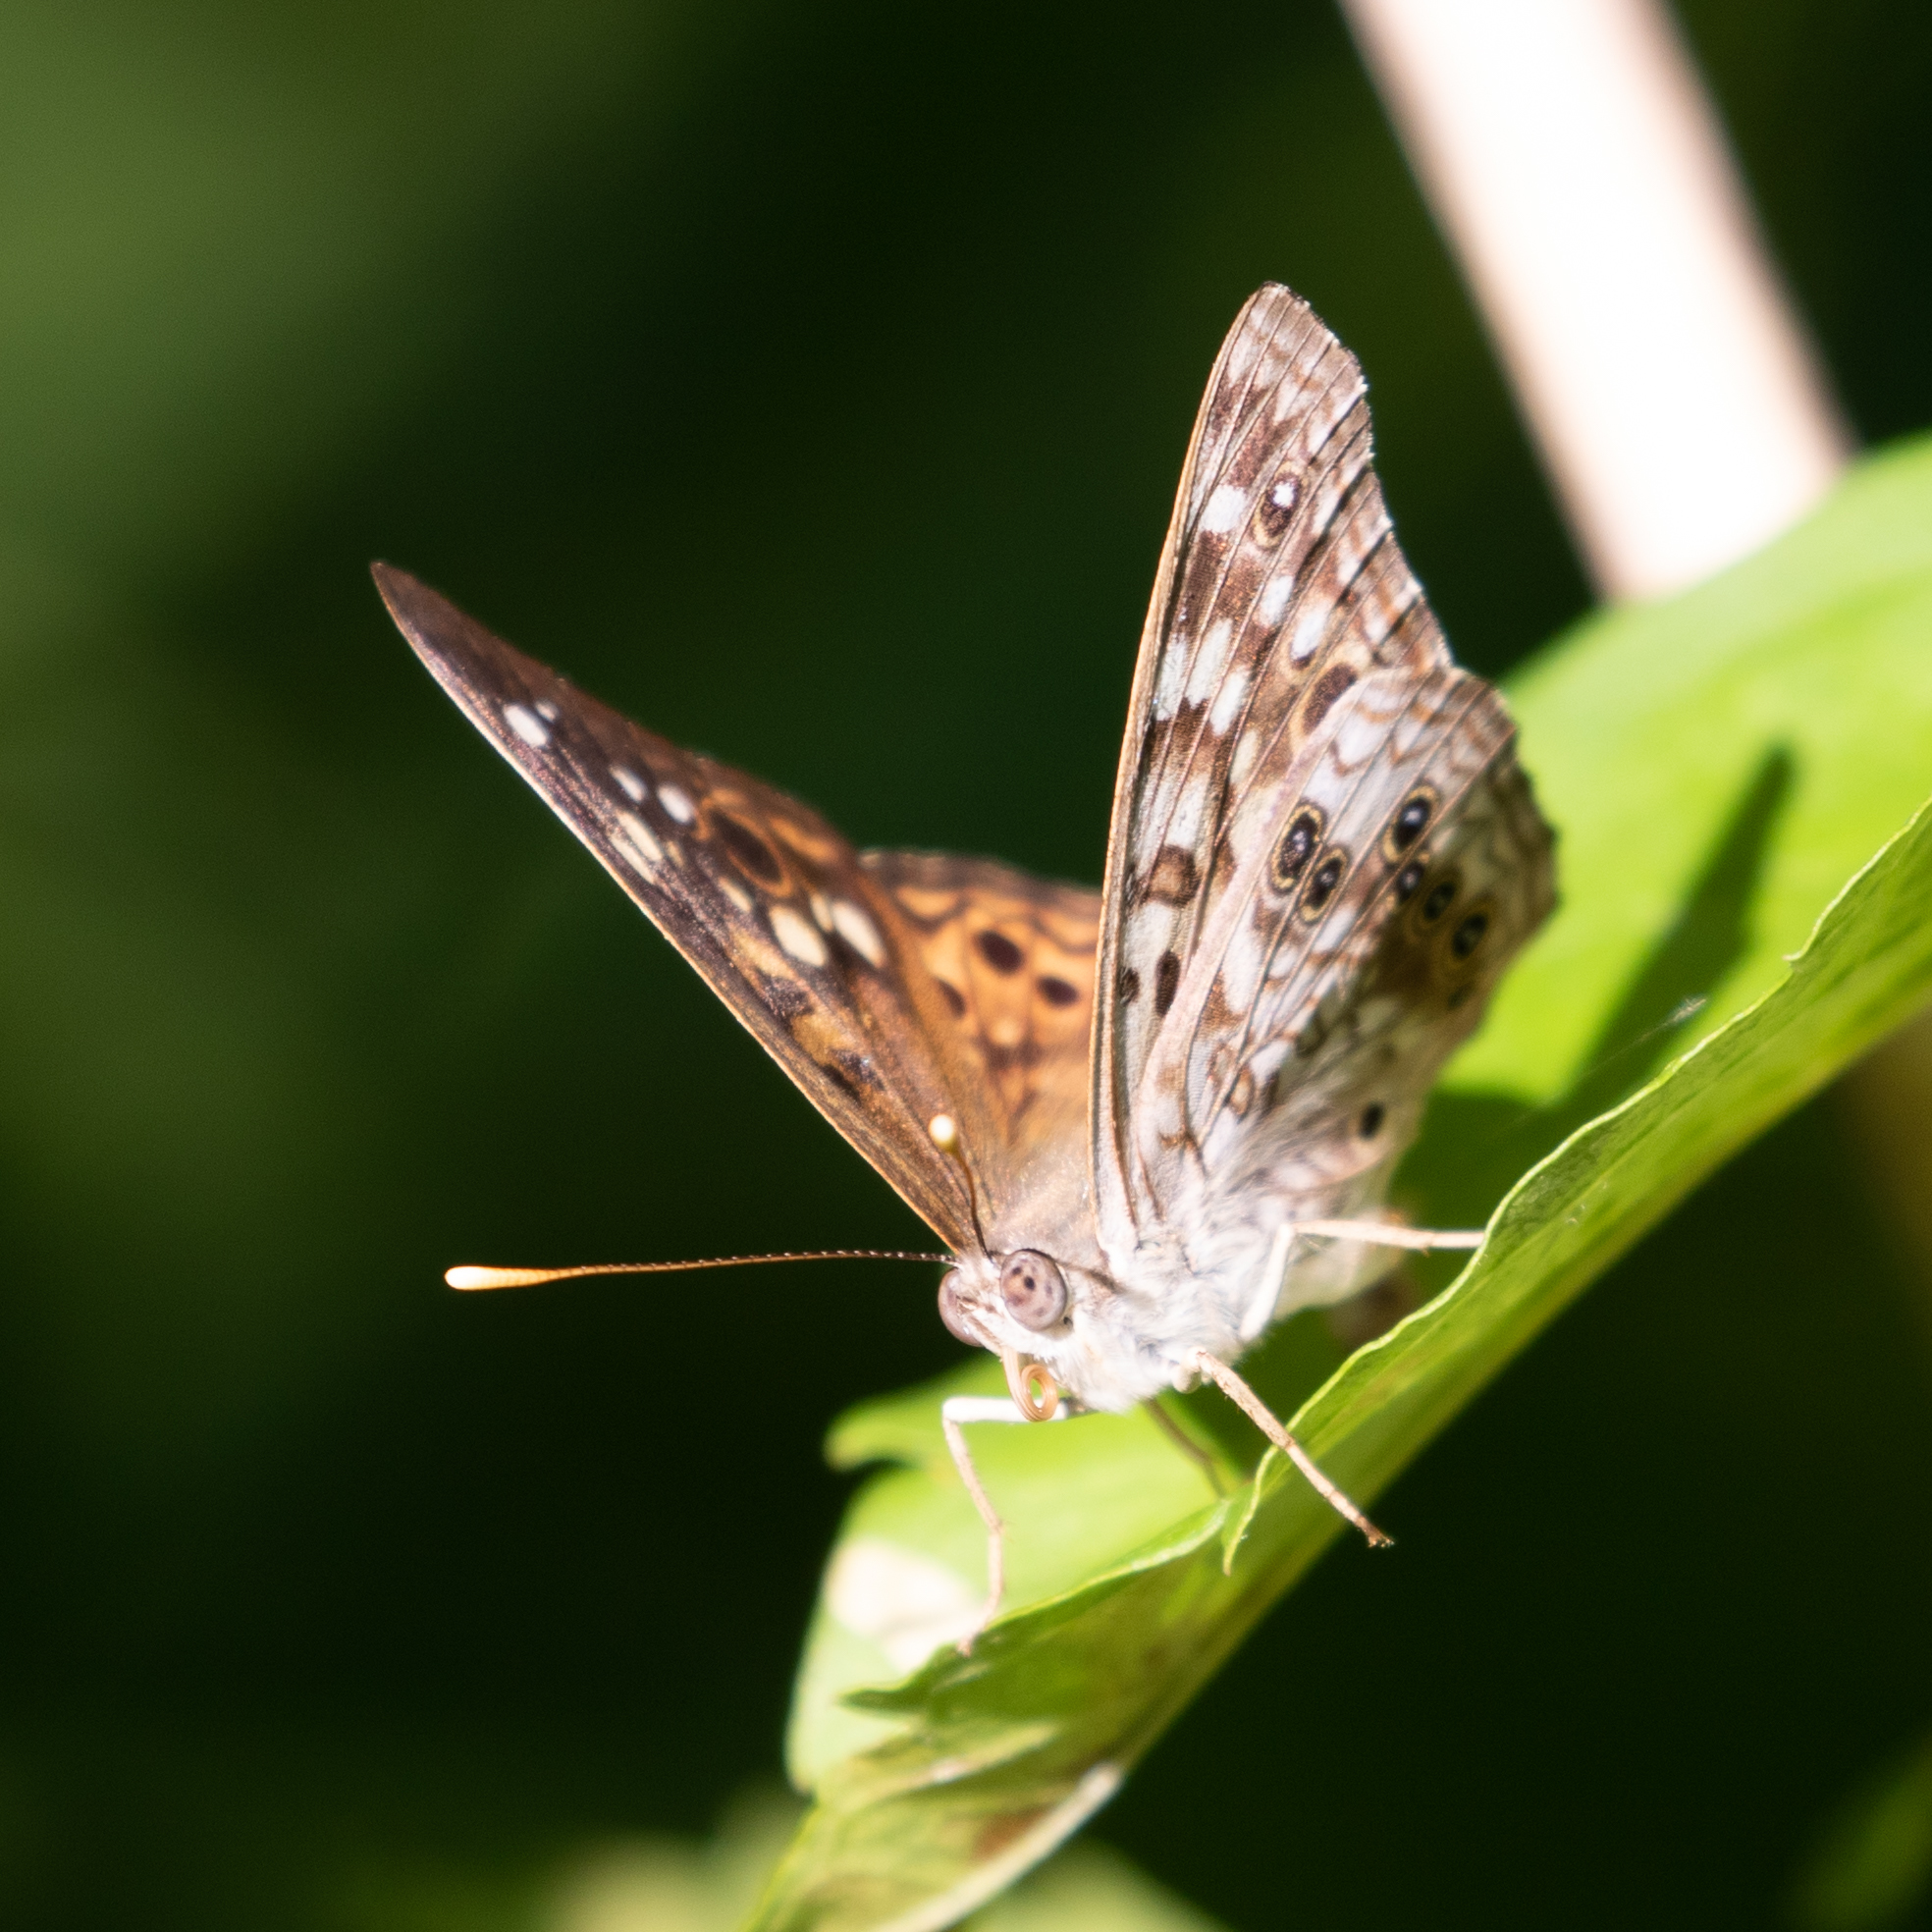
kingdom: Animalia
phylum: Arthropoda
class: Insecta
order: Lepidoptera
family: Nymphalidae
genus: Asterocampa
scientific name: Asterocampa celtis
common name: Hackberry emperor
